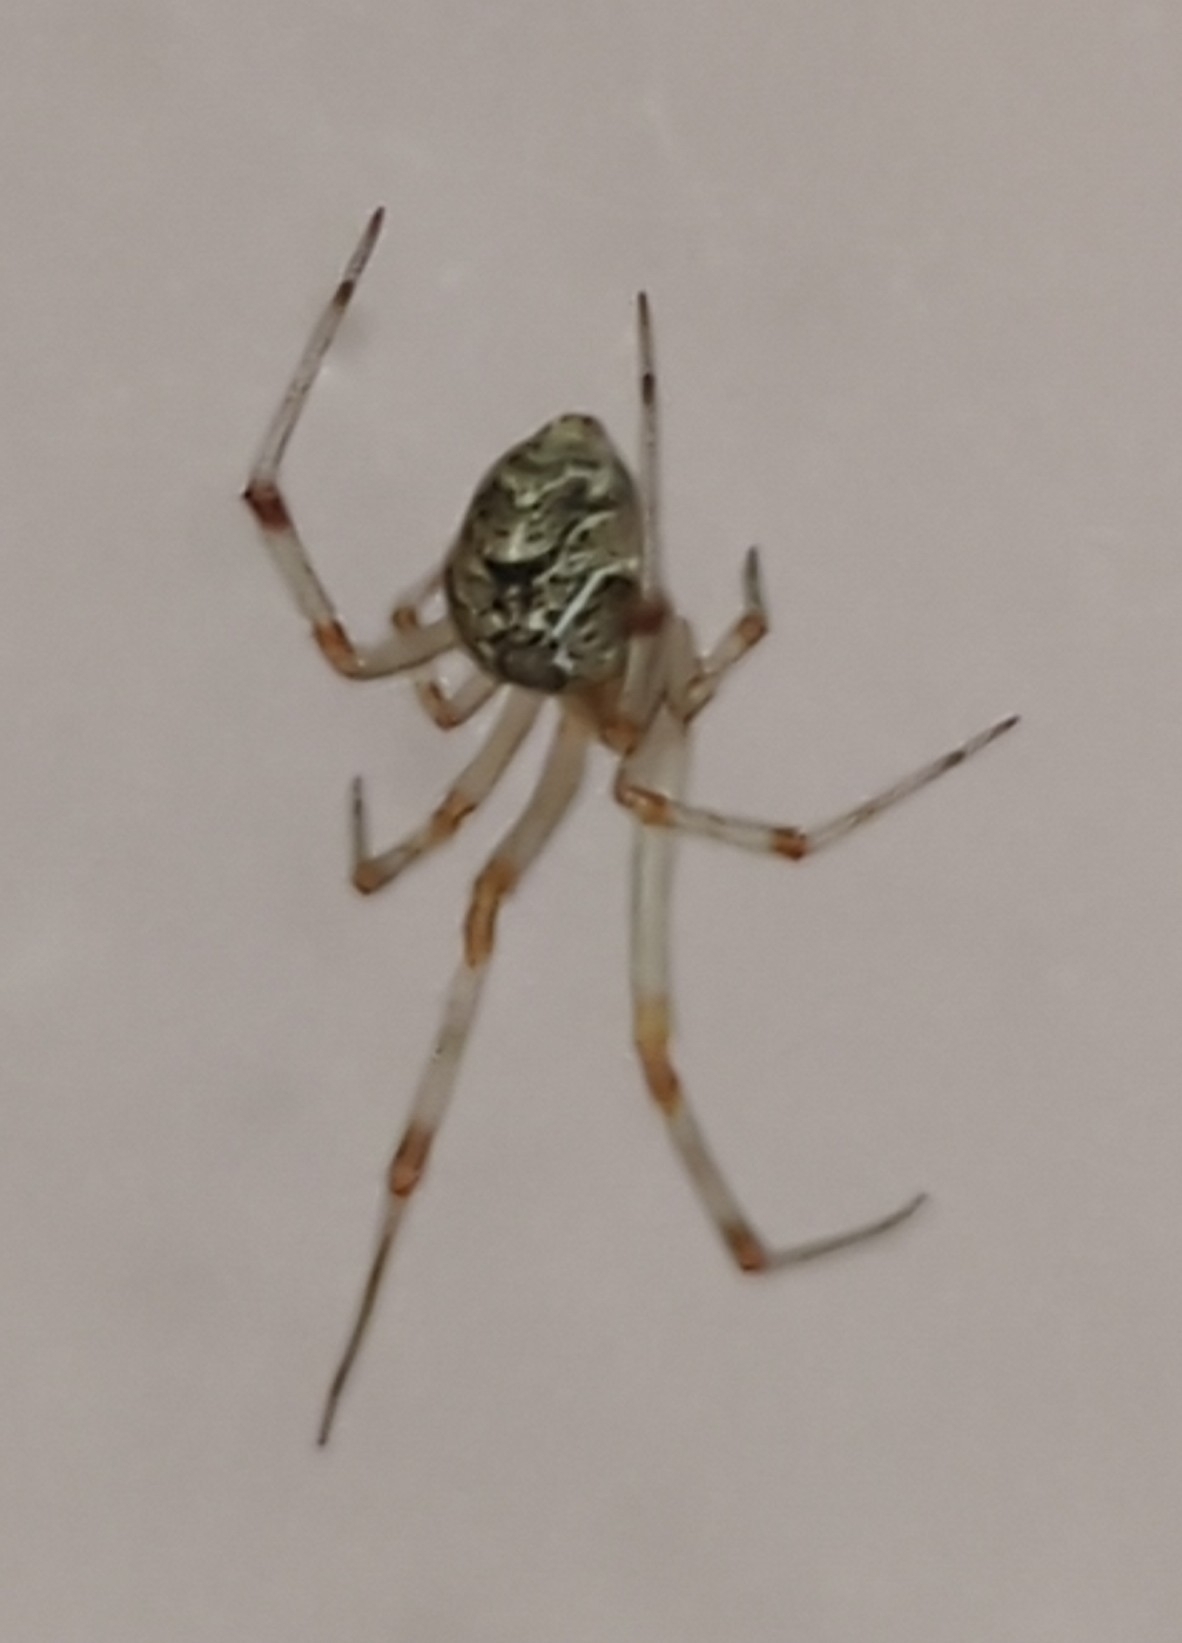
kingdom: Animalia
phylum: Arthropoda
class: Arachnida
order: Araneae
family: Theridiidae
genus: Parasteatoda
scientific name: Parasteatoda tepidariorum
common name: Common house spider
